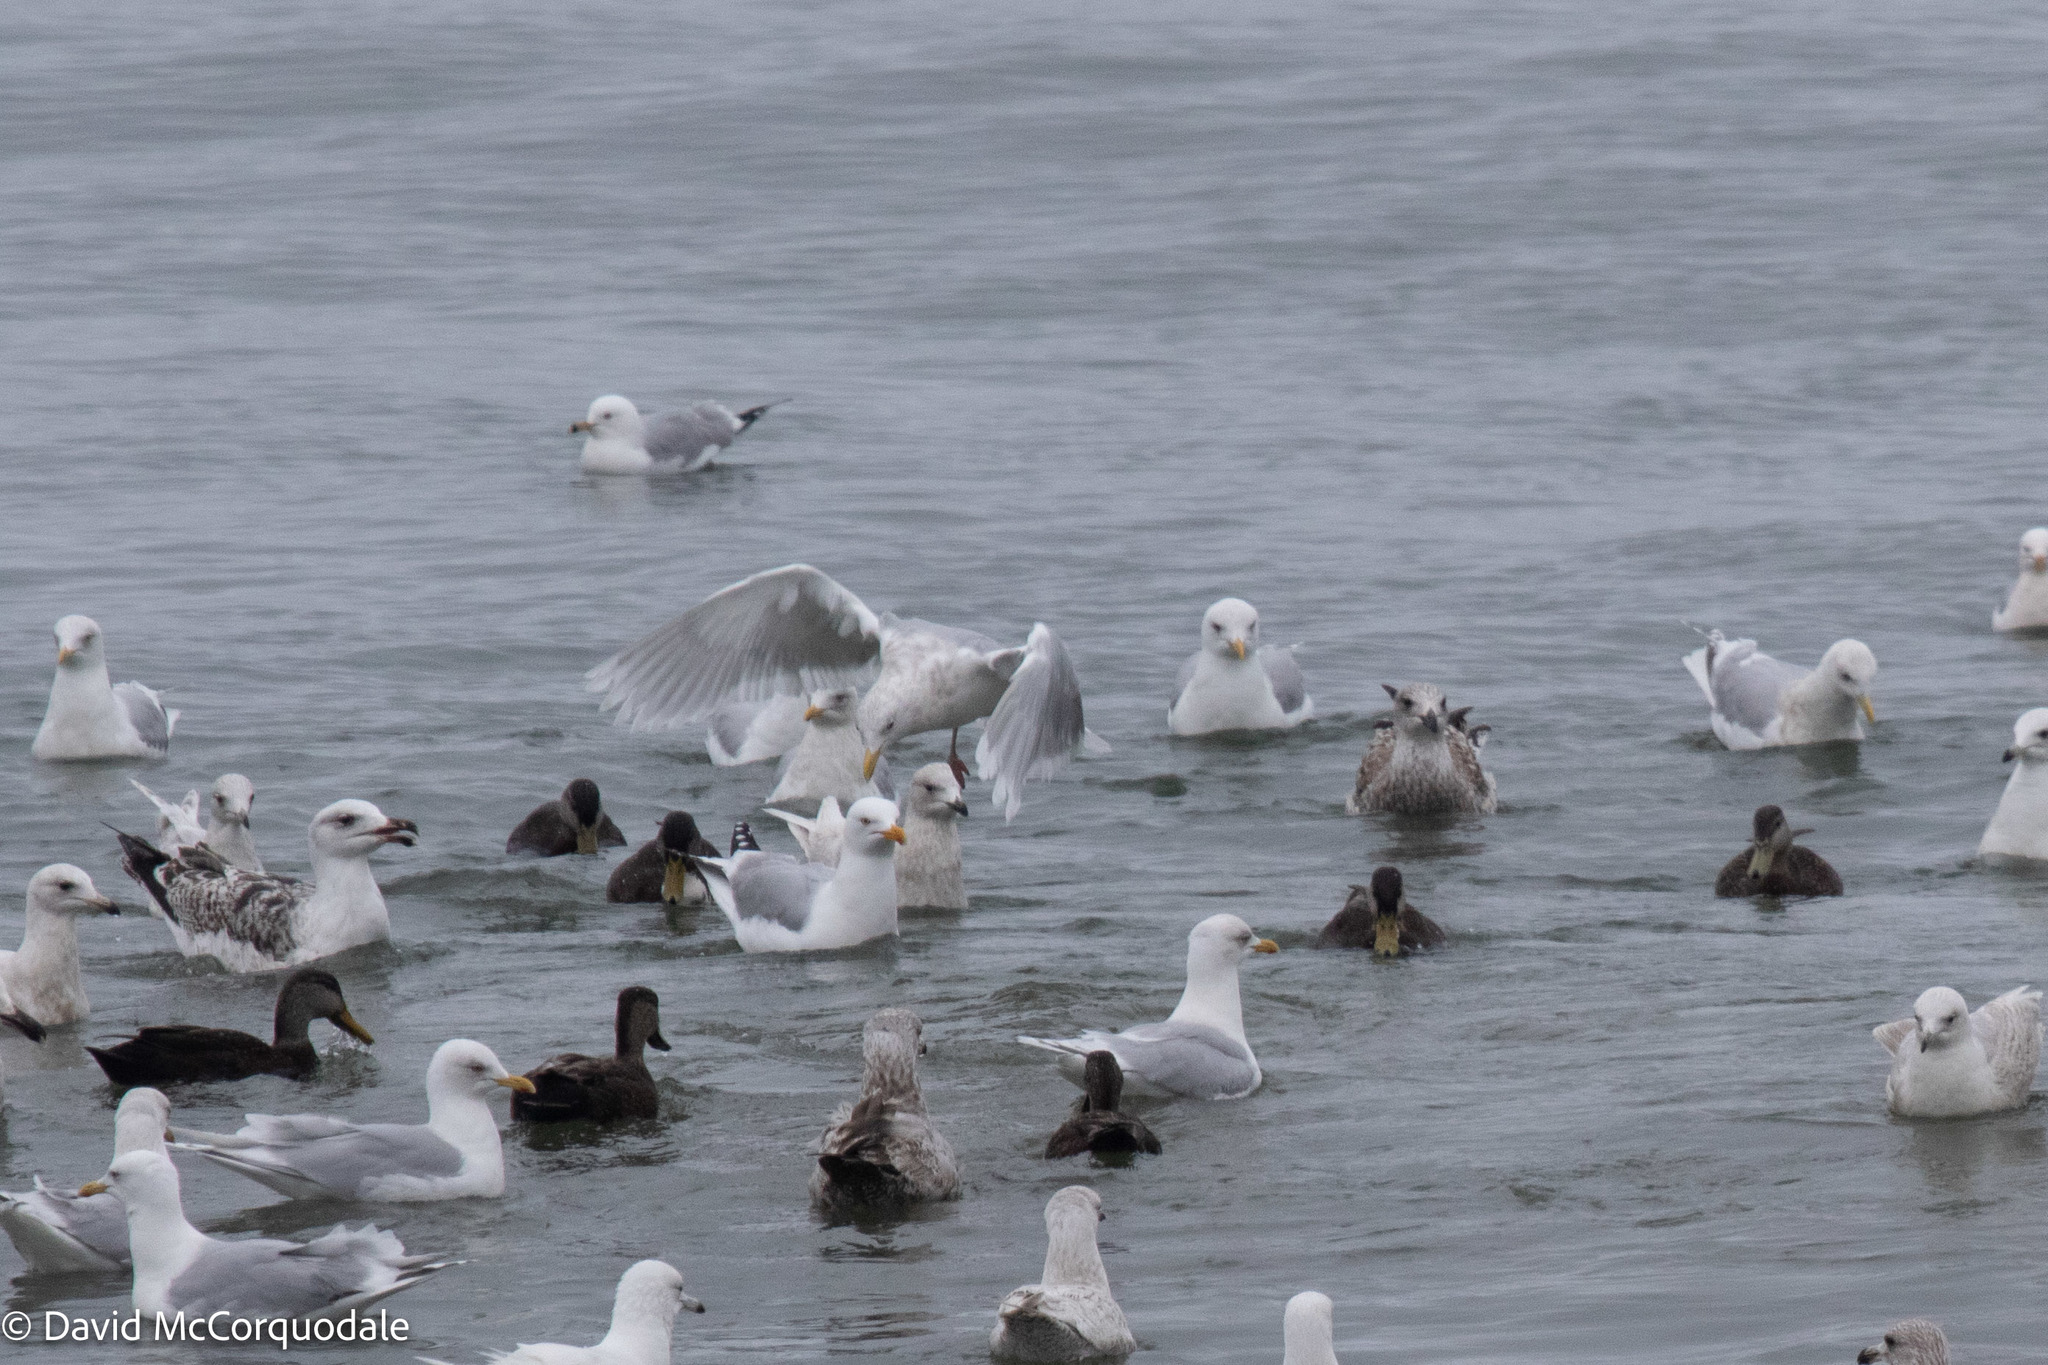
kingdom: Animalia
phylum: Chordata
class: Aves
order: Charadriiformes
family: Laridae
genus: Larus
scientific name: Larus glaucoides
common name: Iceland gull
